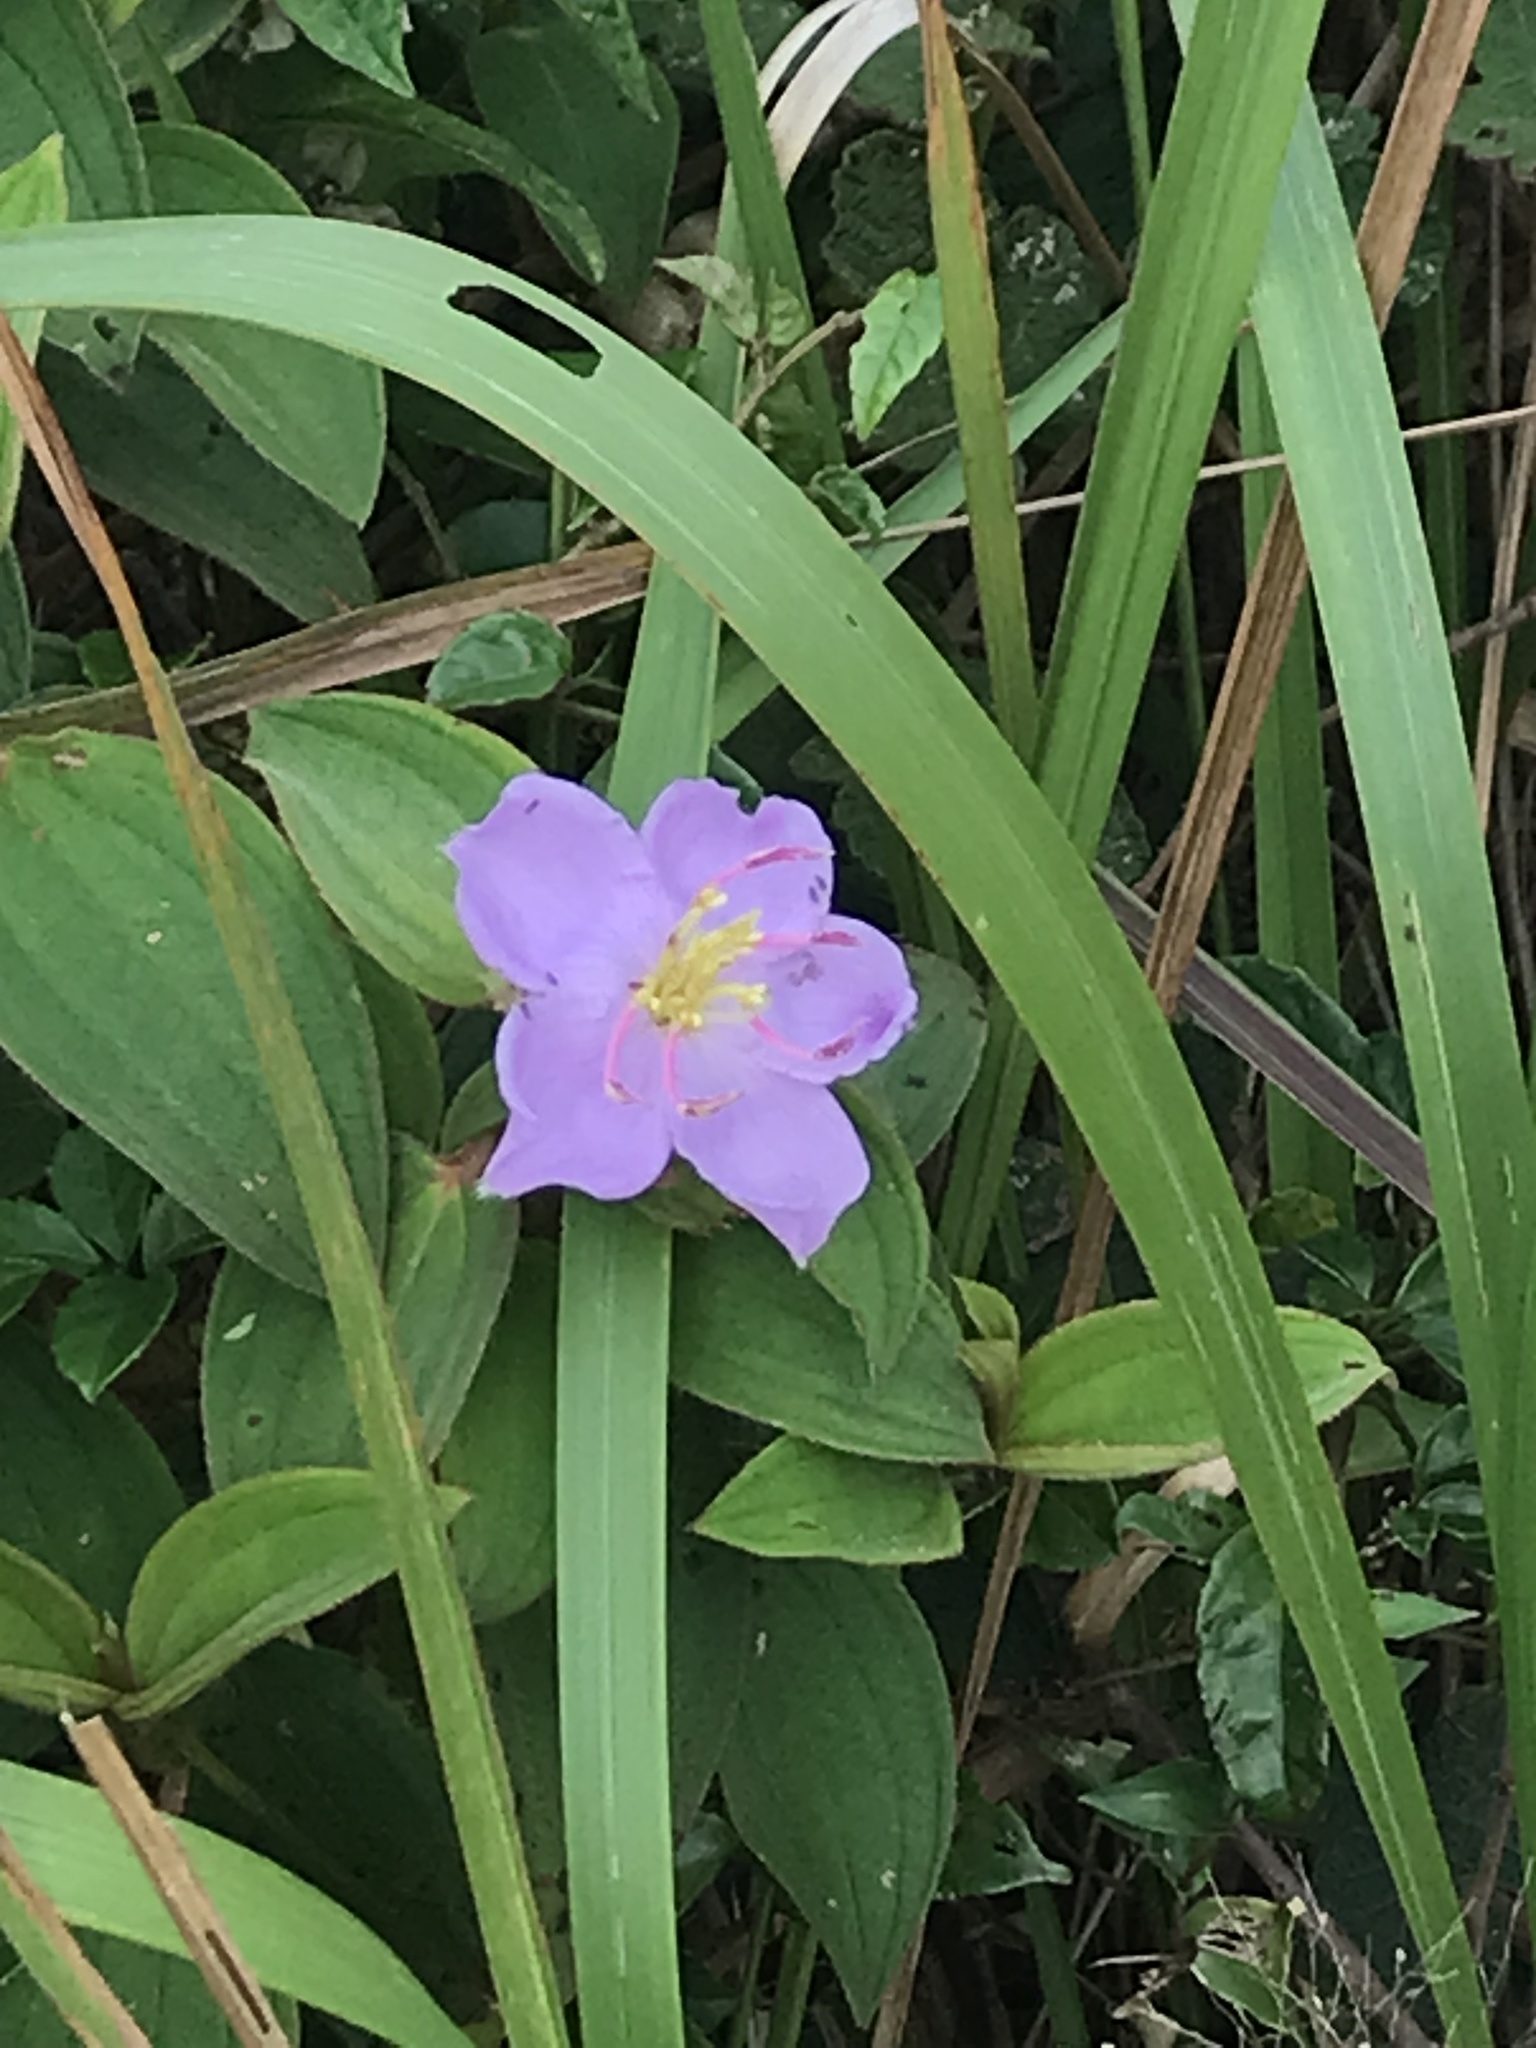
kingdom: Plantae
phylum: Tracheophyta
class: Magnoliopsida
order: Myrtales
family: Melastomataceae
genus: Melastoma
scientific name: Melastoma malabathricum
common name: Indian-rhododendron
